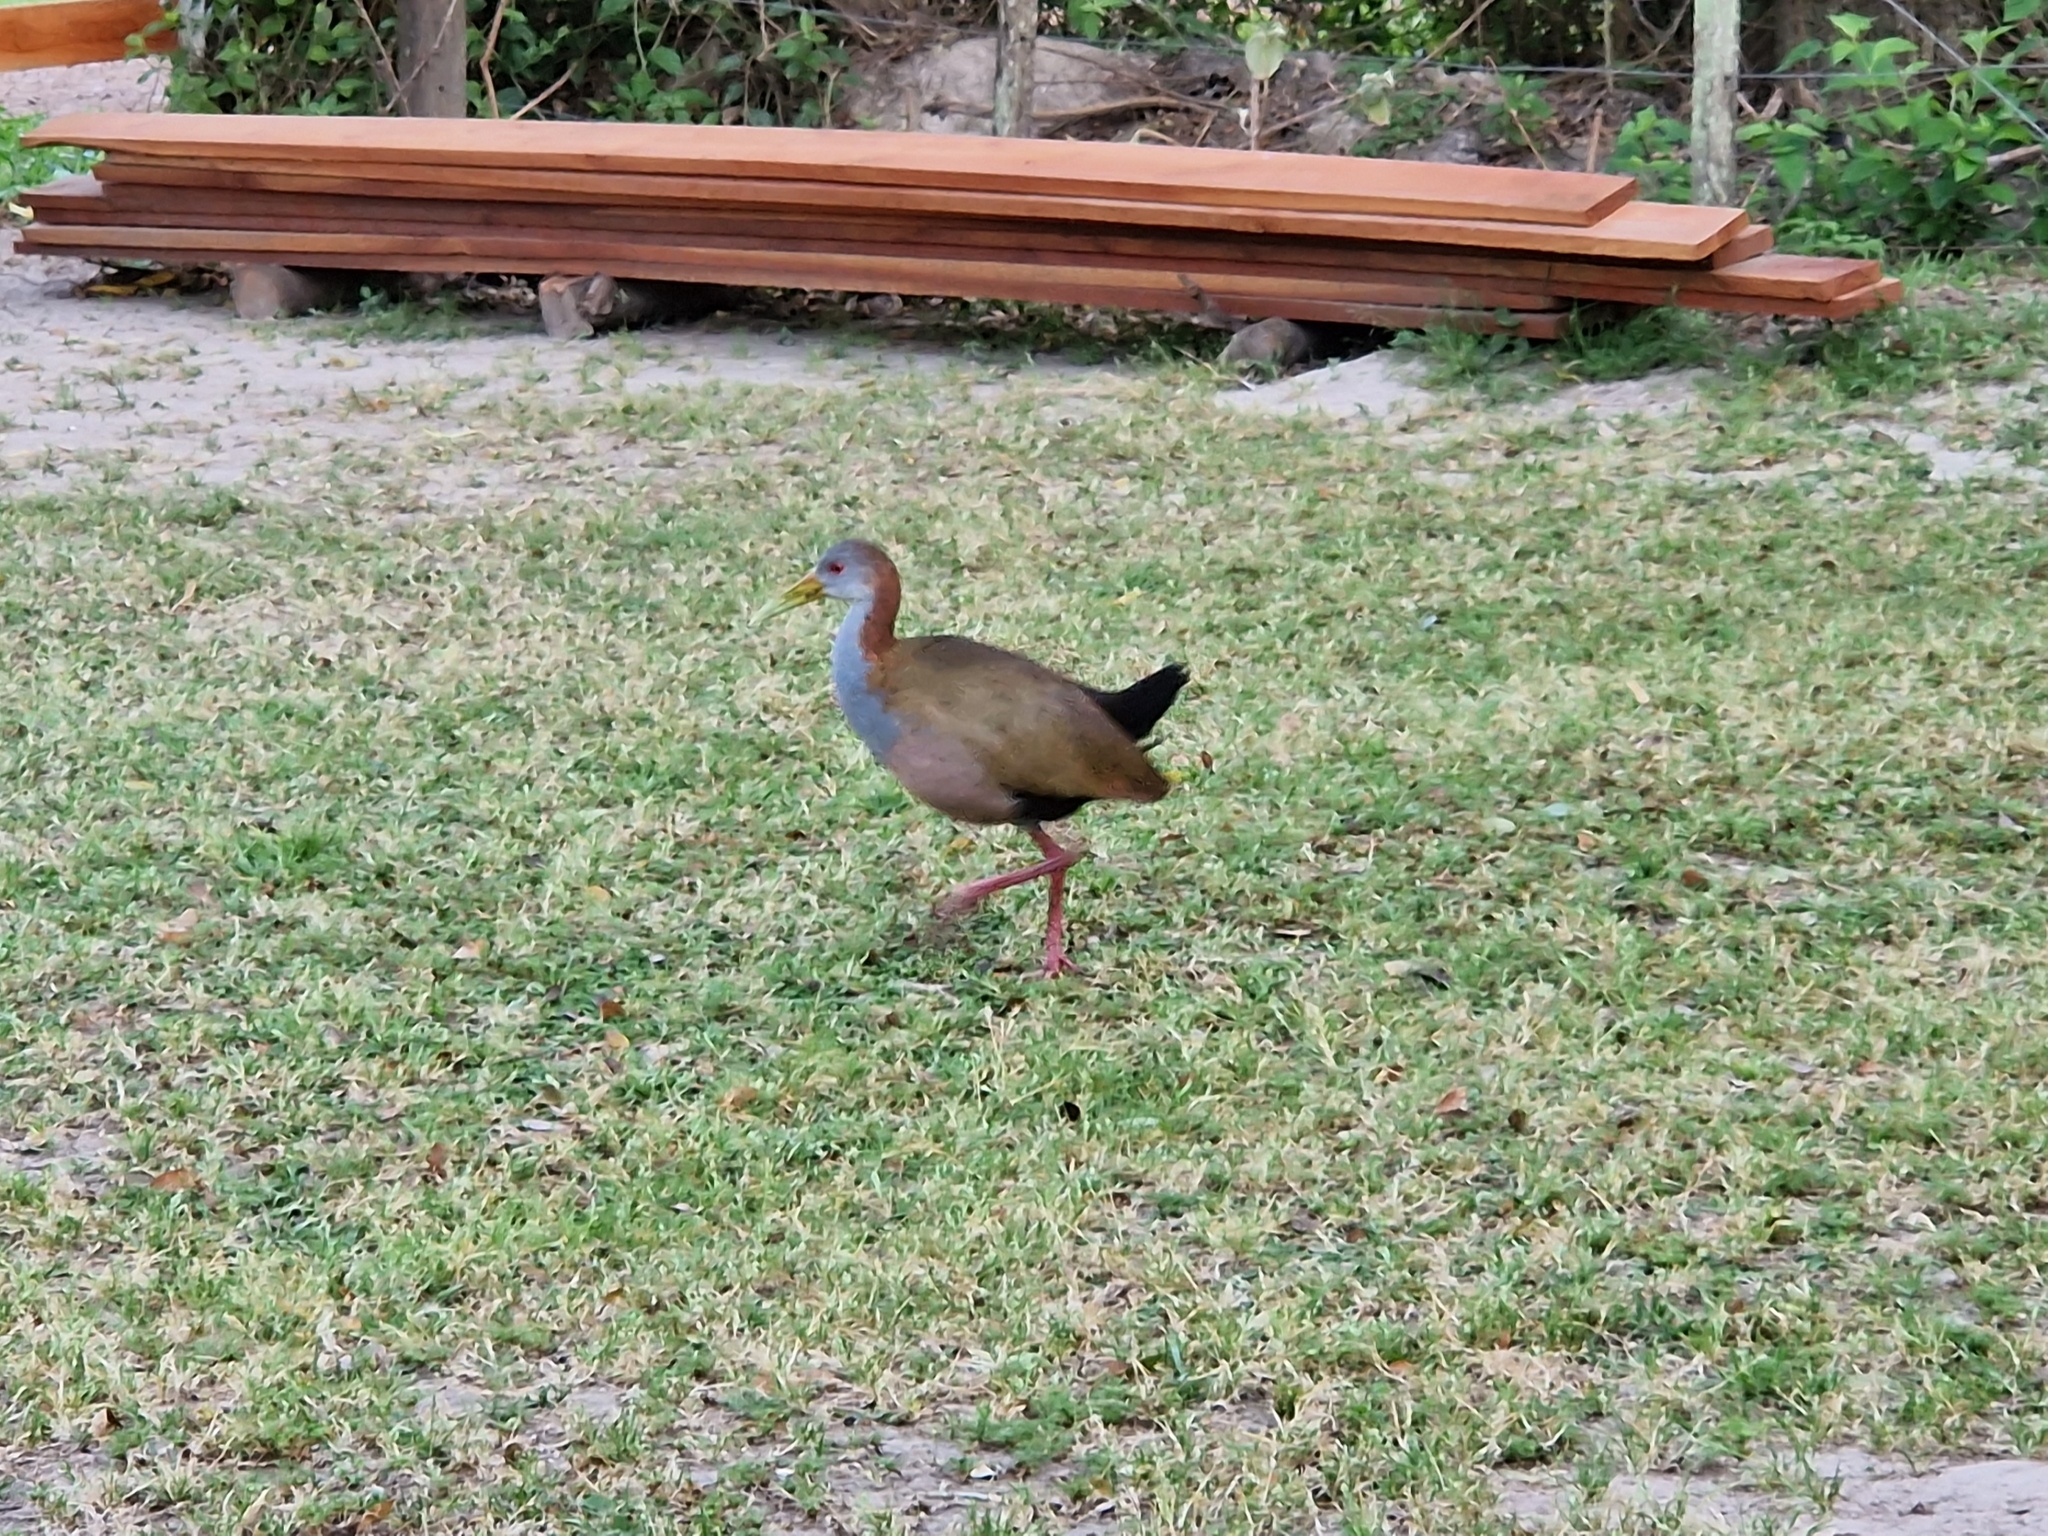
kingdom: Animalia
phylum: Chordata
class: Aves
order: Gruiformes
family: Rallidae
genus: Aramides
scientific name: Aramides ypecaha
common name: Giant wood rail
